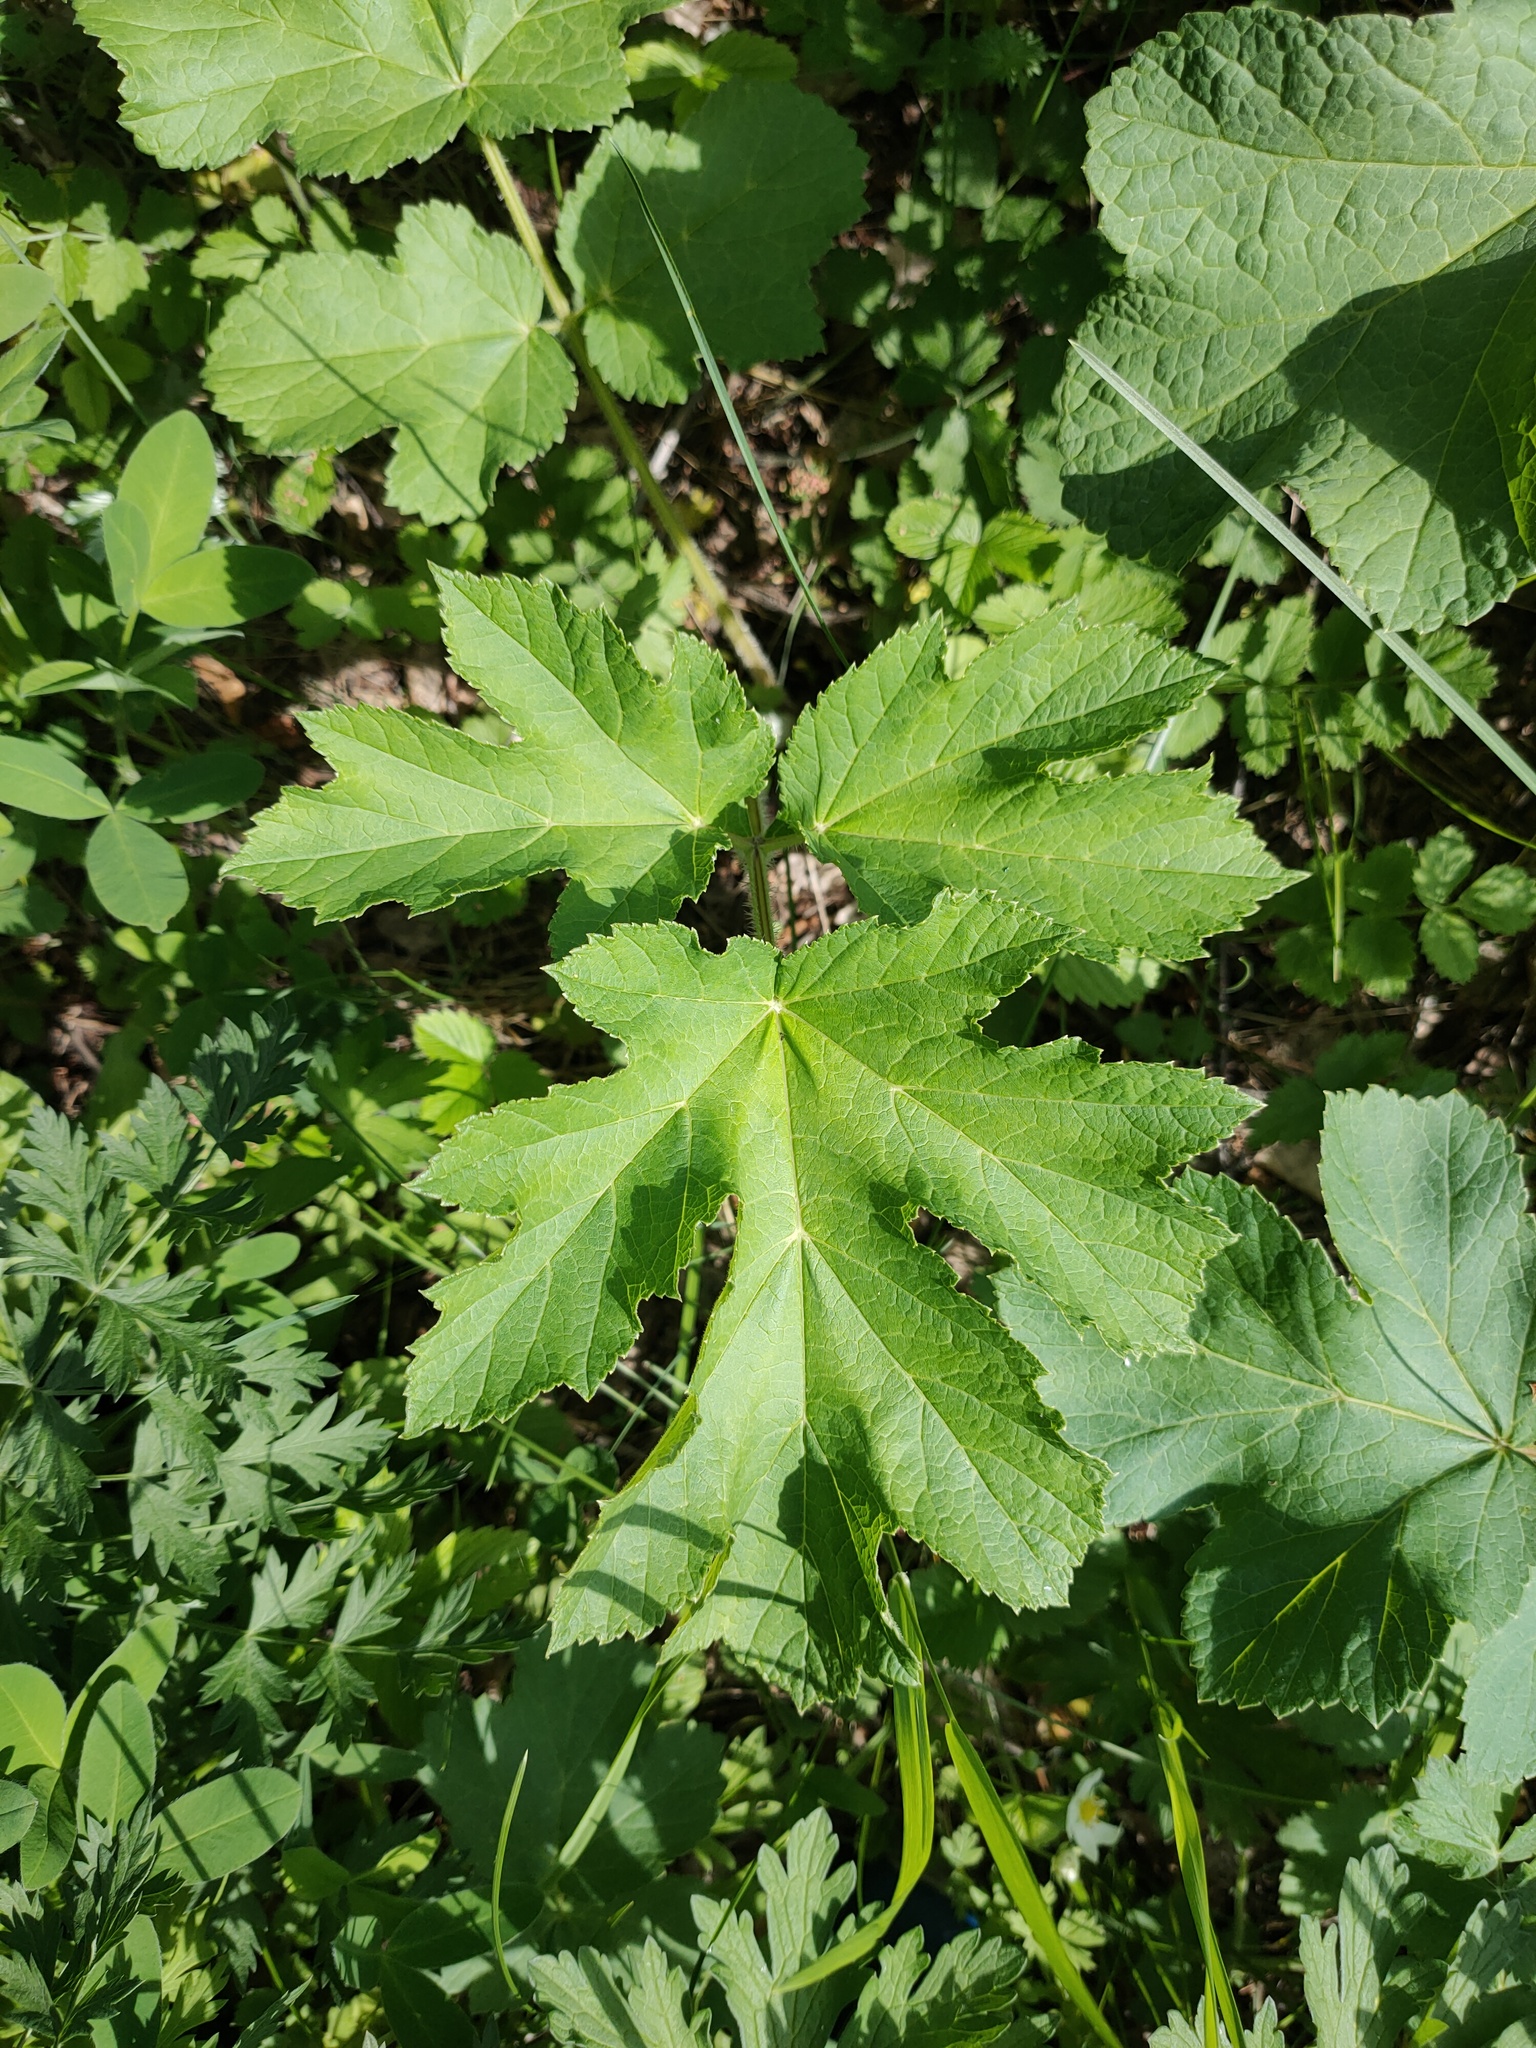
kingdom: Plantae
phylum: Tracheophyta
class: Magnoliopsida
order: Apiales
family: Apiaceae
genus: Heracleum
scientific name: Heracleum sphondylium
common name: Hogweed
